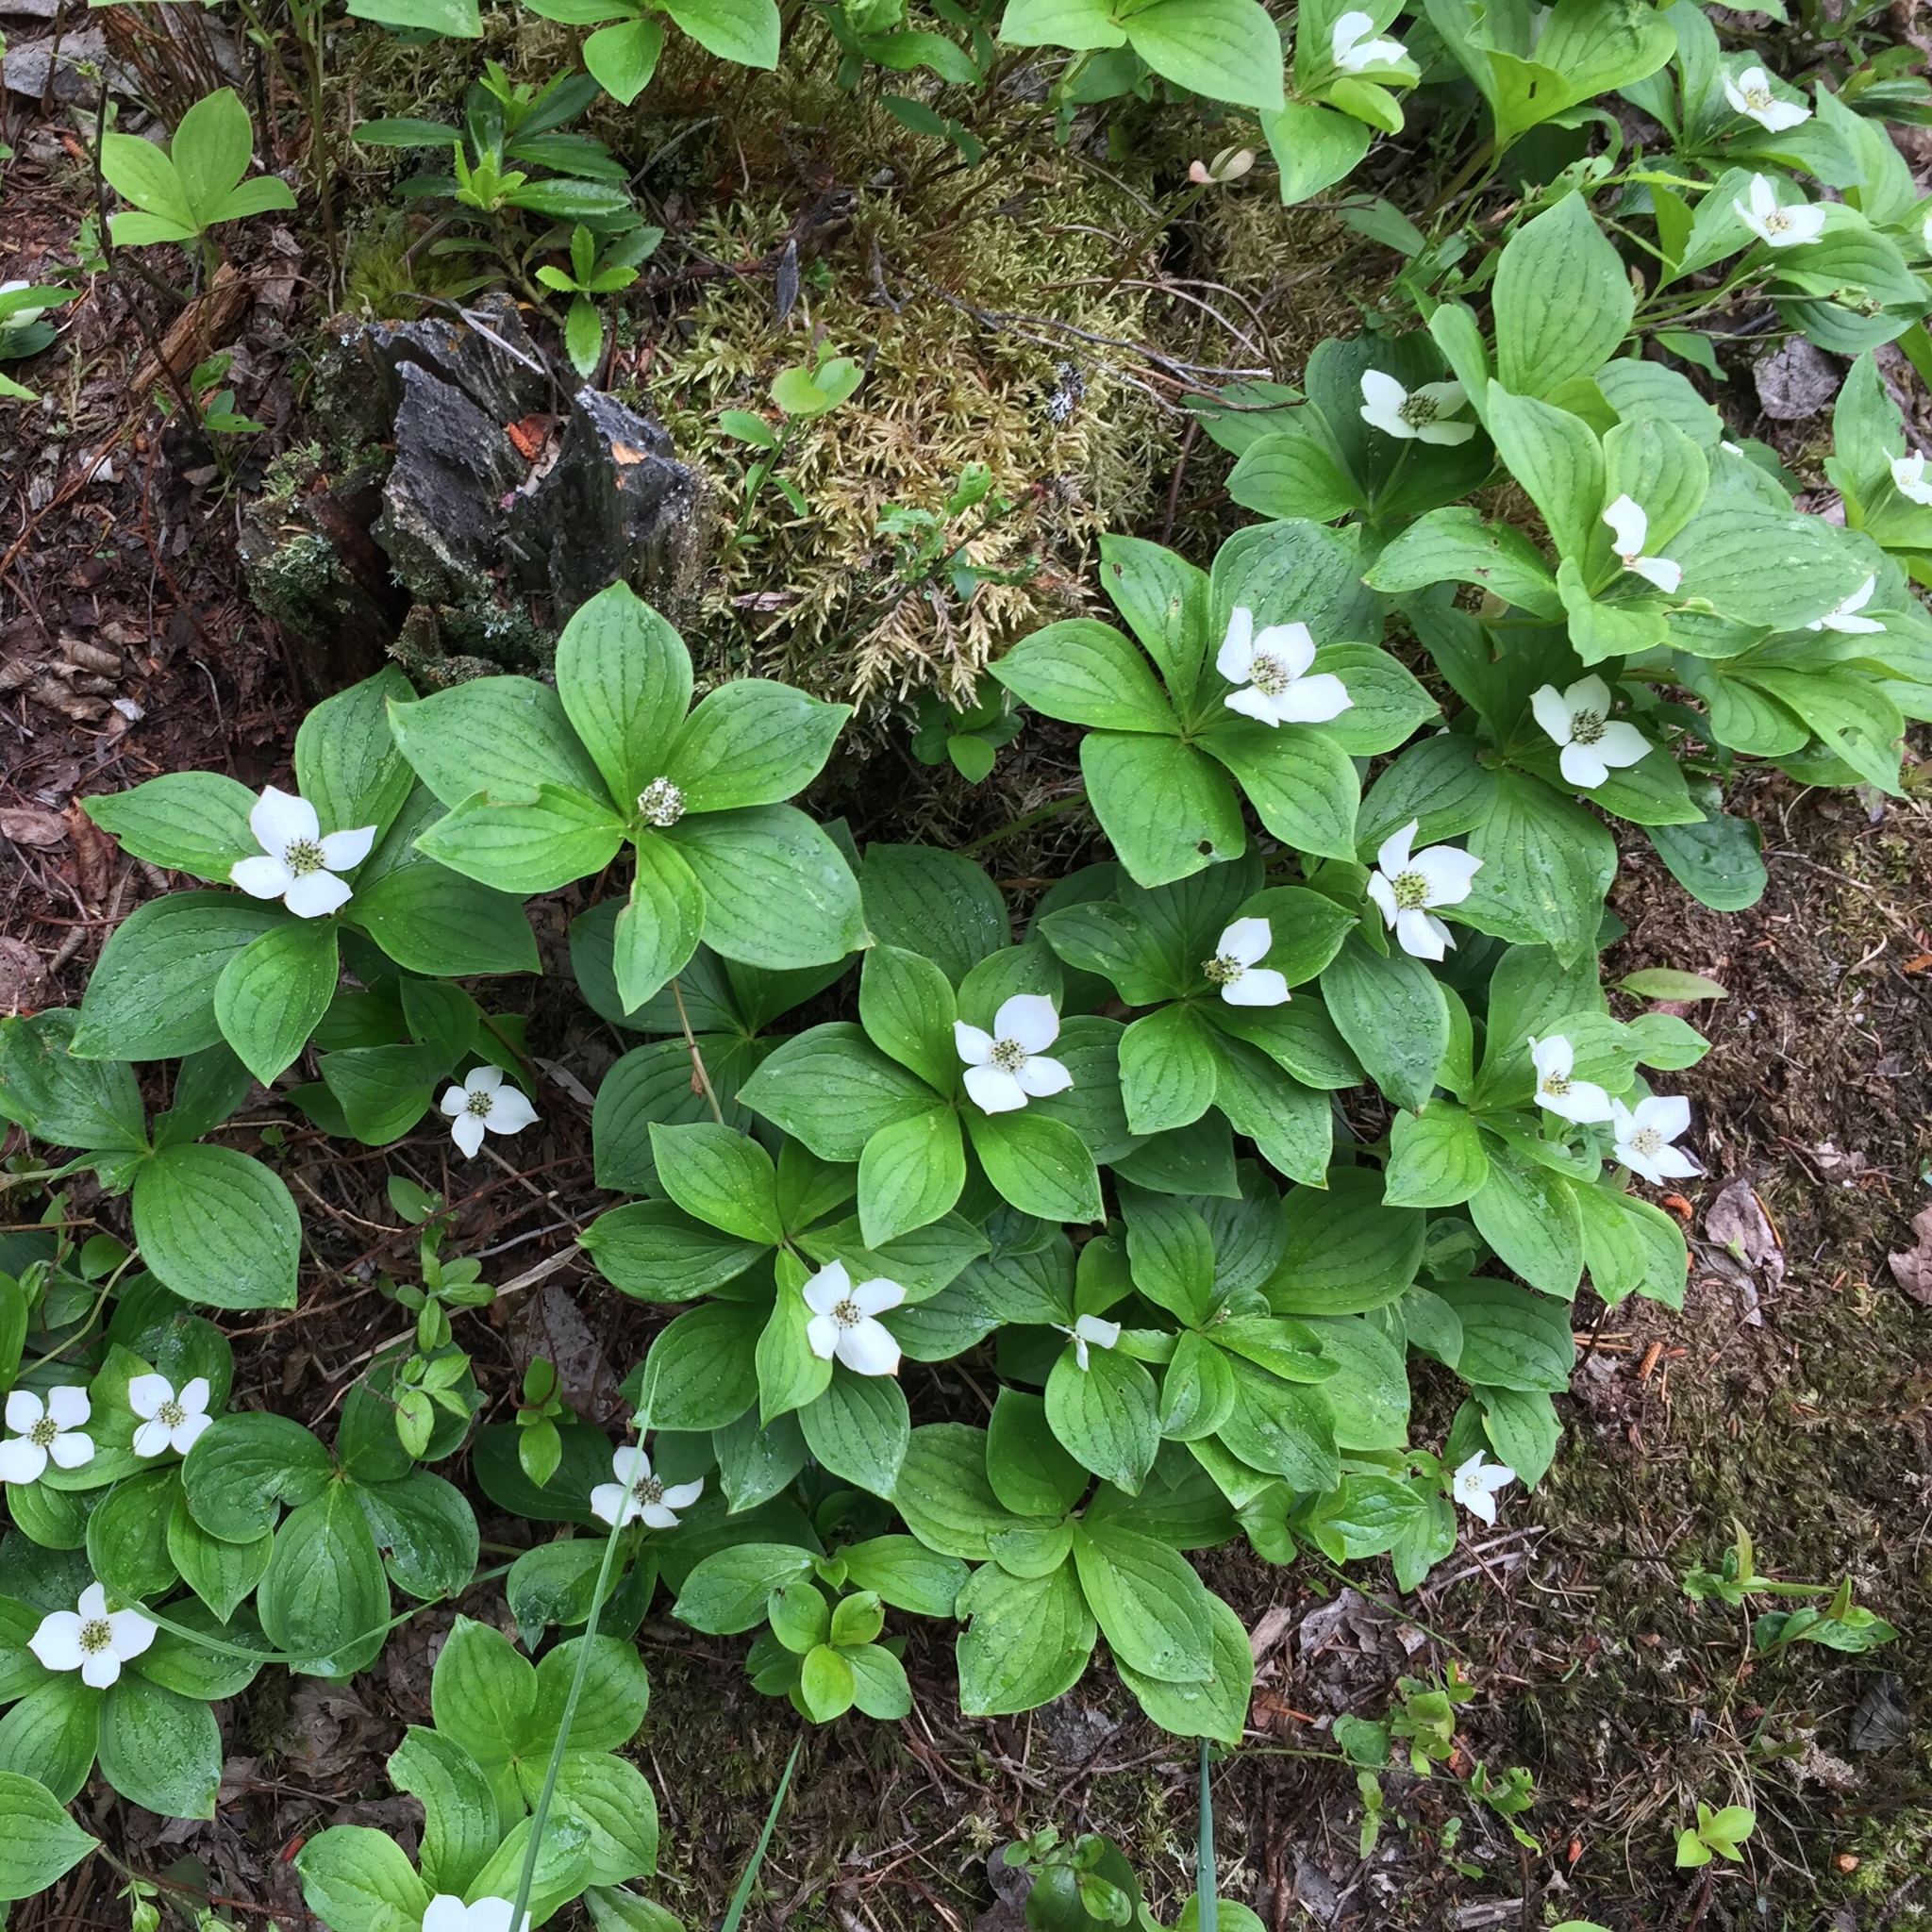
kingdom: Plantae
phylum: Tracheophyta
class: Magnoliopsida
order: Cornales
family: Cornaceae
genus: Cornus
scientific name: Cornus canadensis
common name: Creeping dogwood
